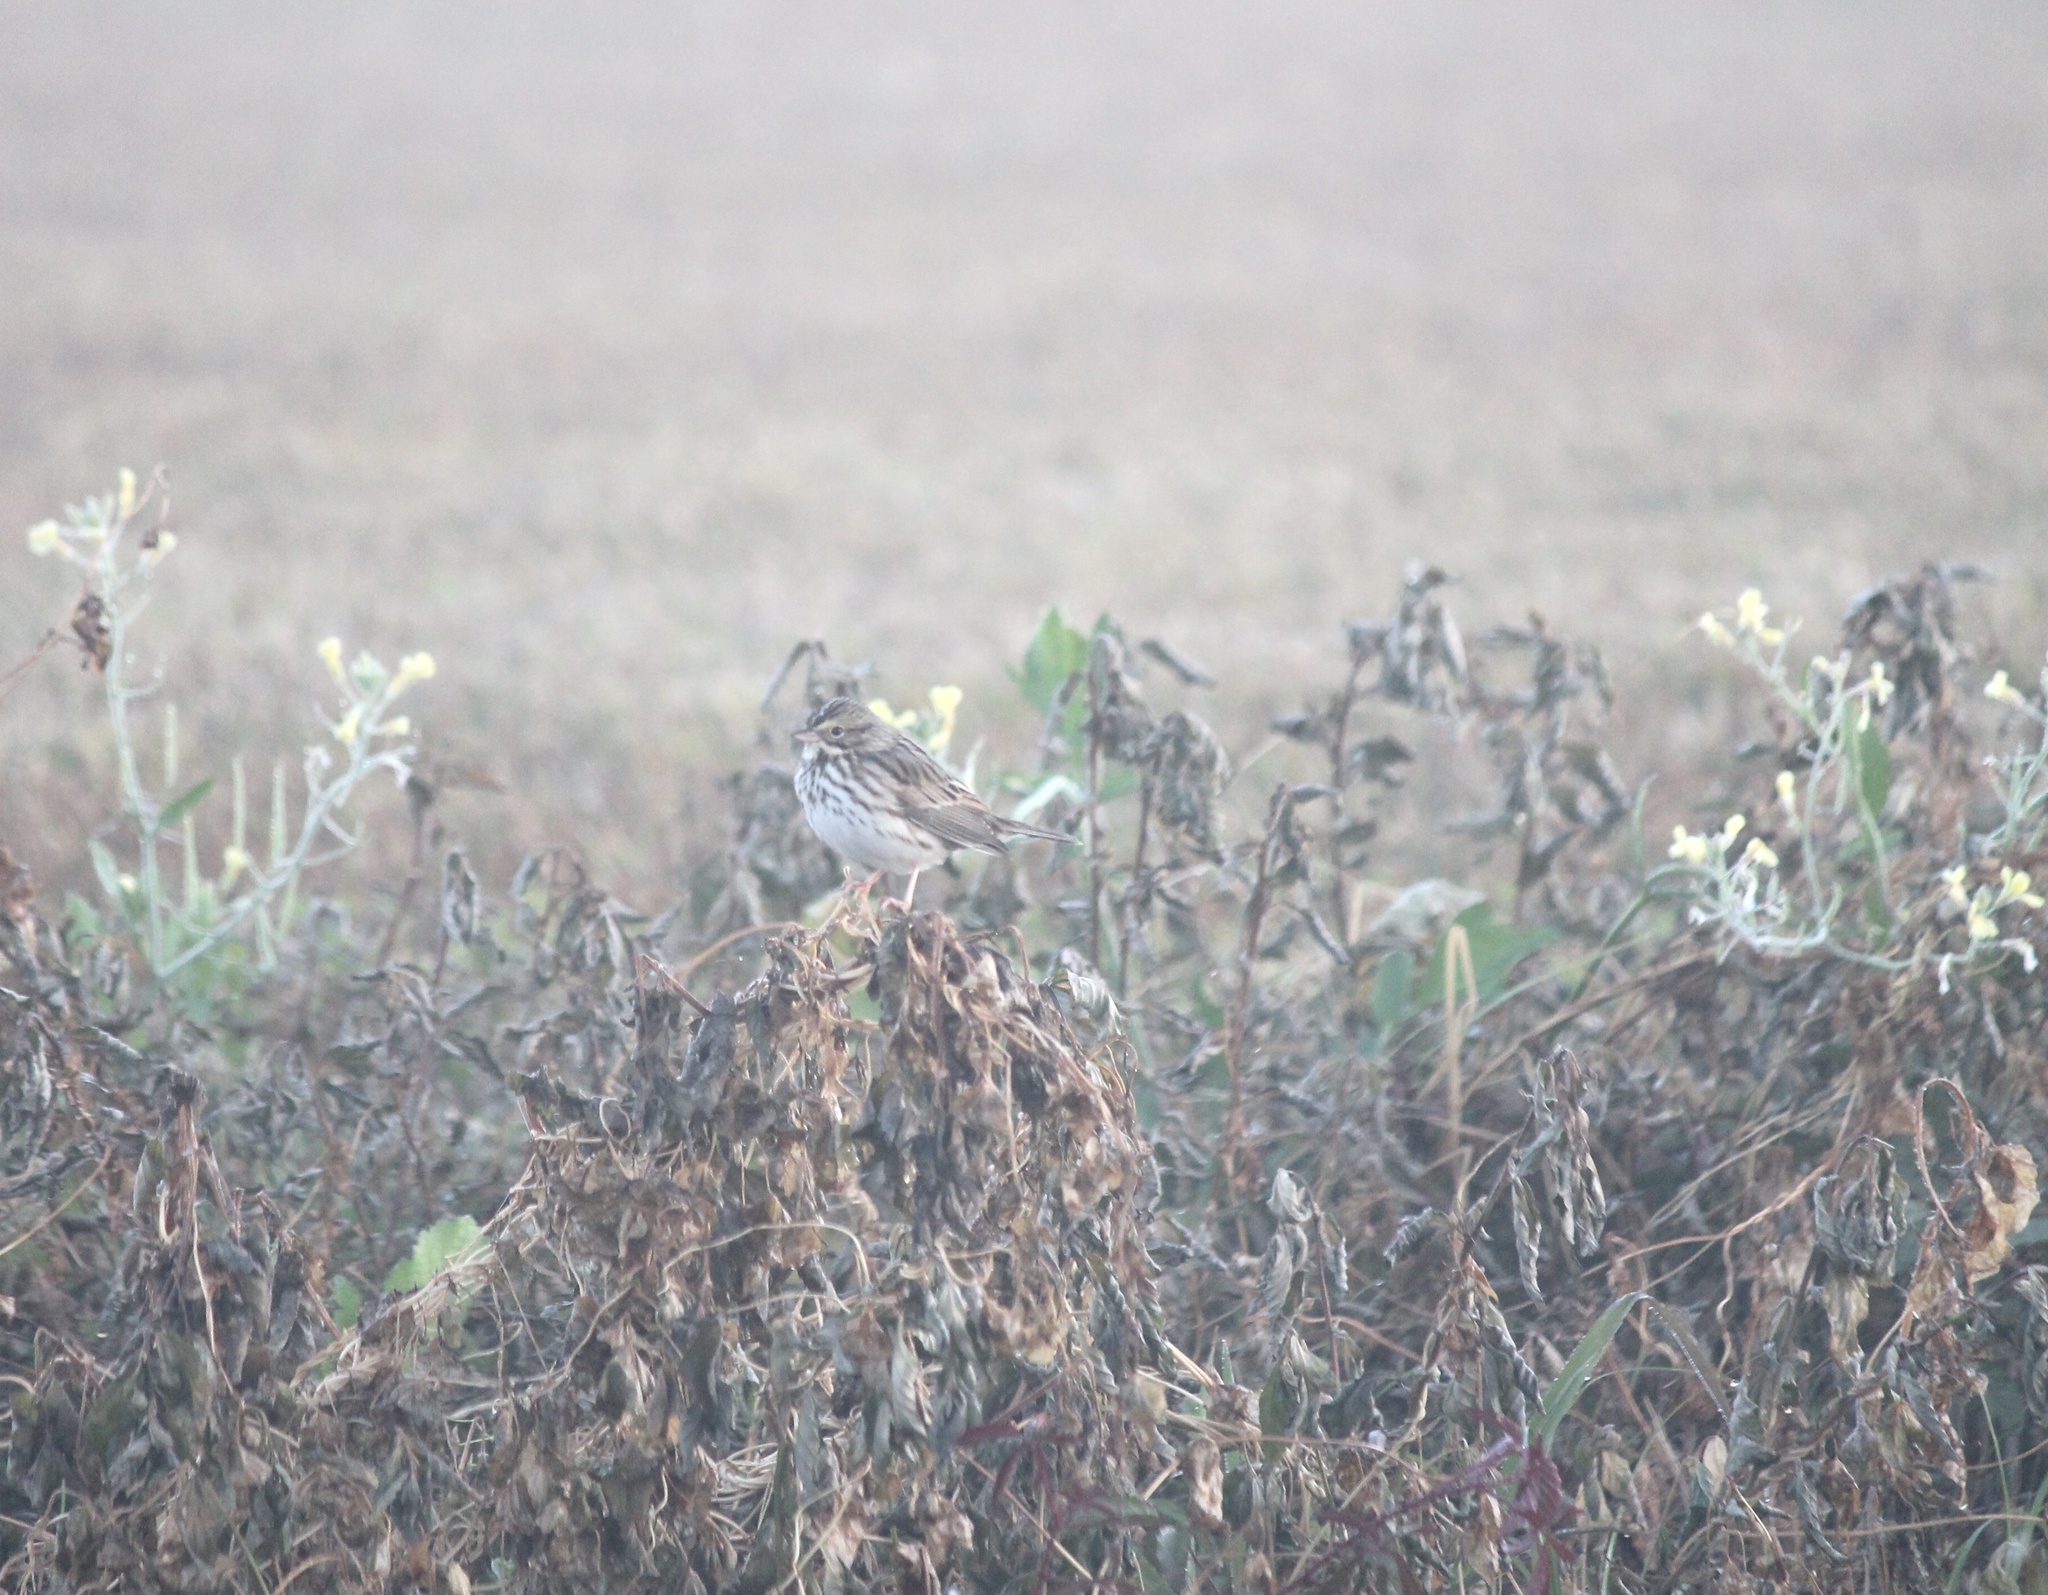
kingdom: Animalia
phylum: Chordata
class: Aves
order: Passeriformes
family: Passerellidae
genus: Passerculus
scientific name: Passerculus sandwichensis
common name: Savannah sparrow
